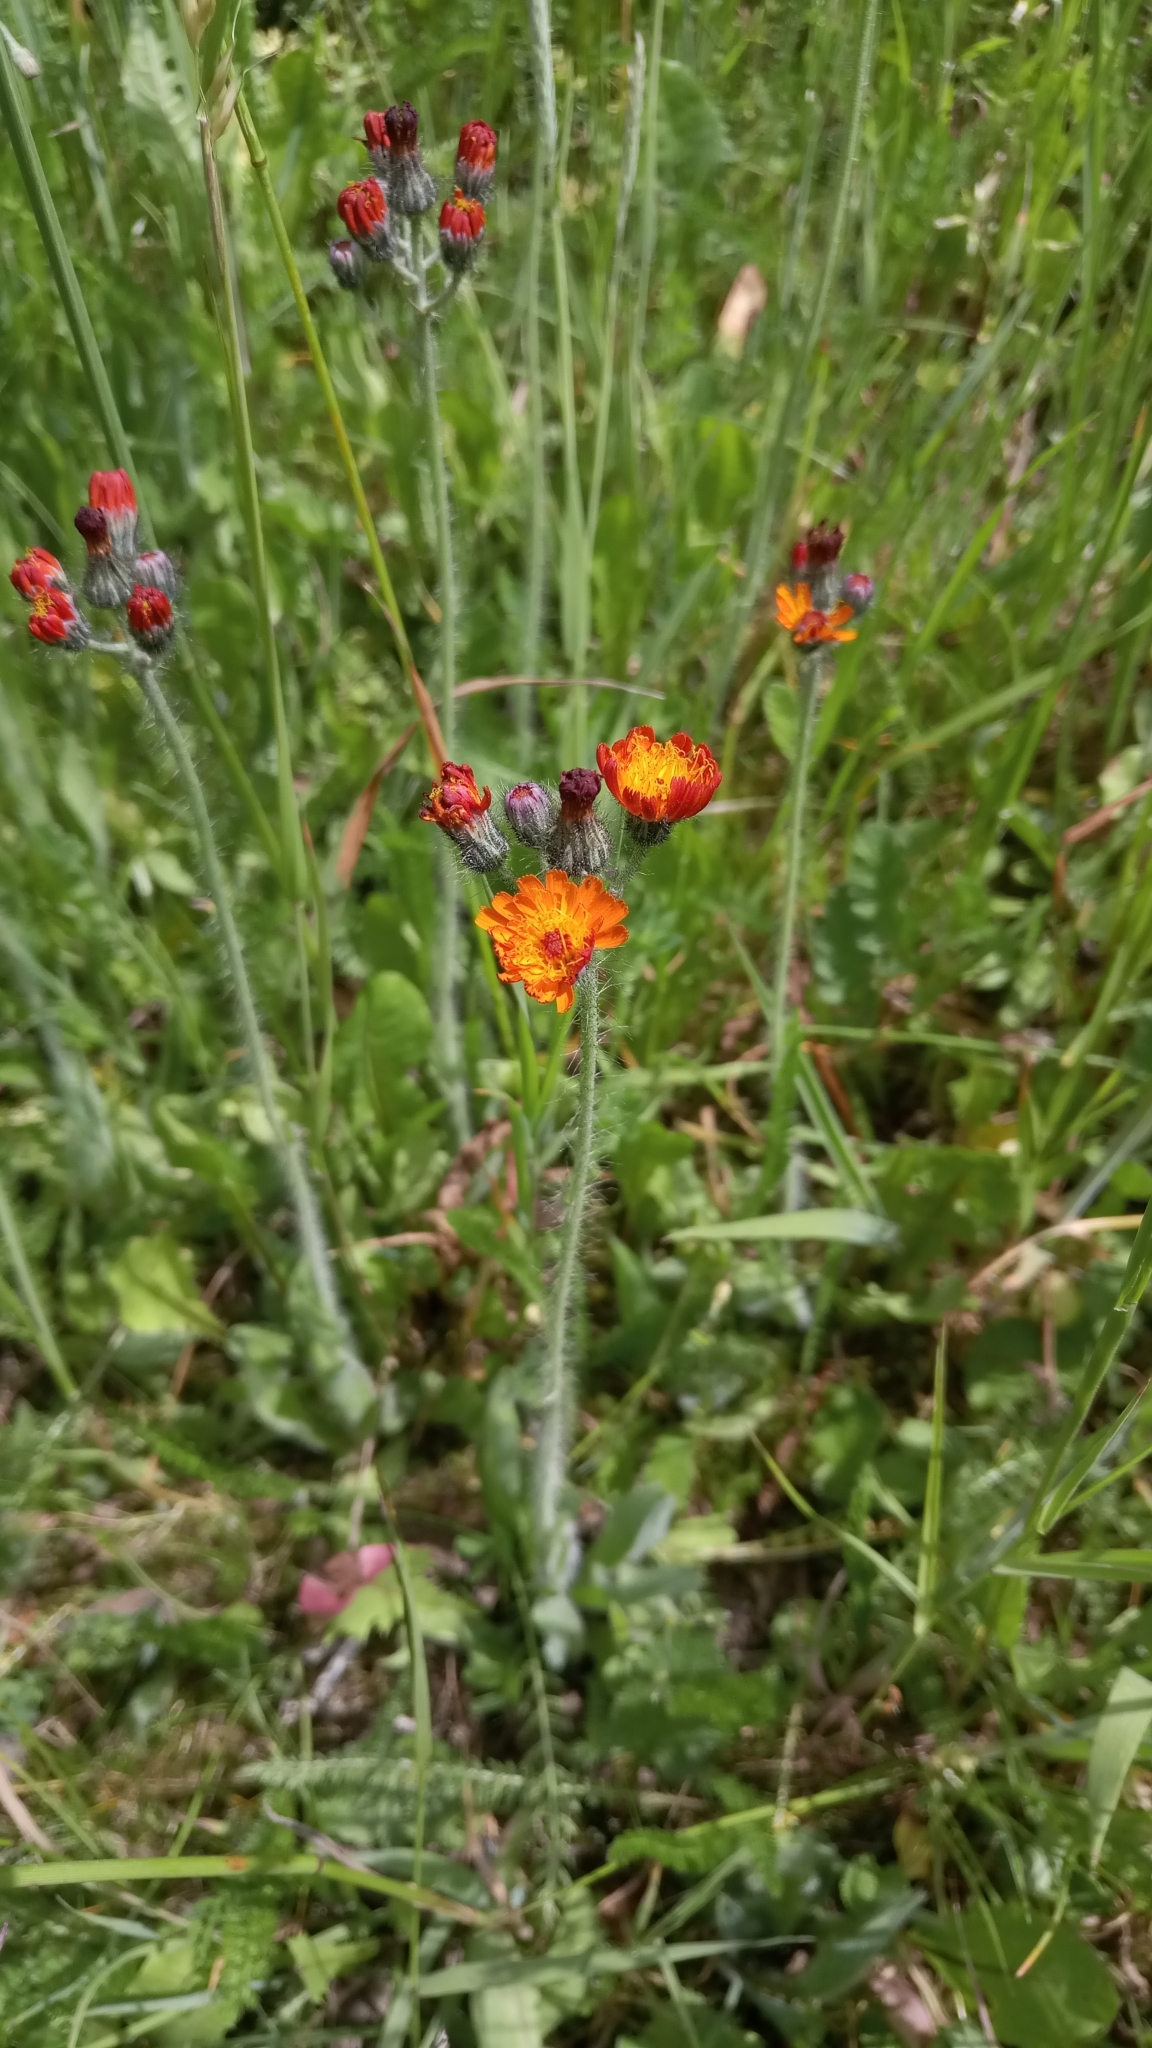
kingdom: Plantae
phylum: Tracheophyta
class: Magnoliopsida
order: Asterales
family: Asteraceae
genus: Pilosella
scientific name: Pilosella aurantiaca
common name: Fox-and-cubs
